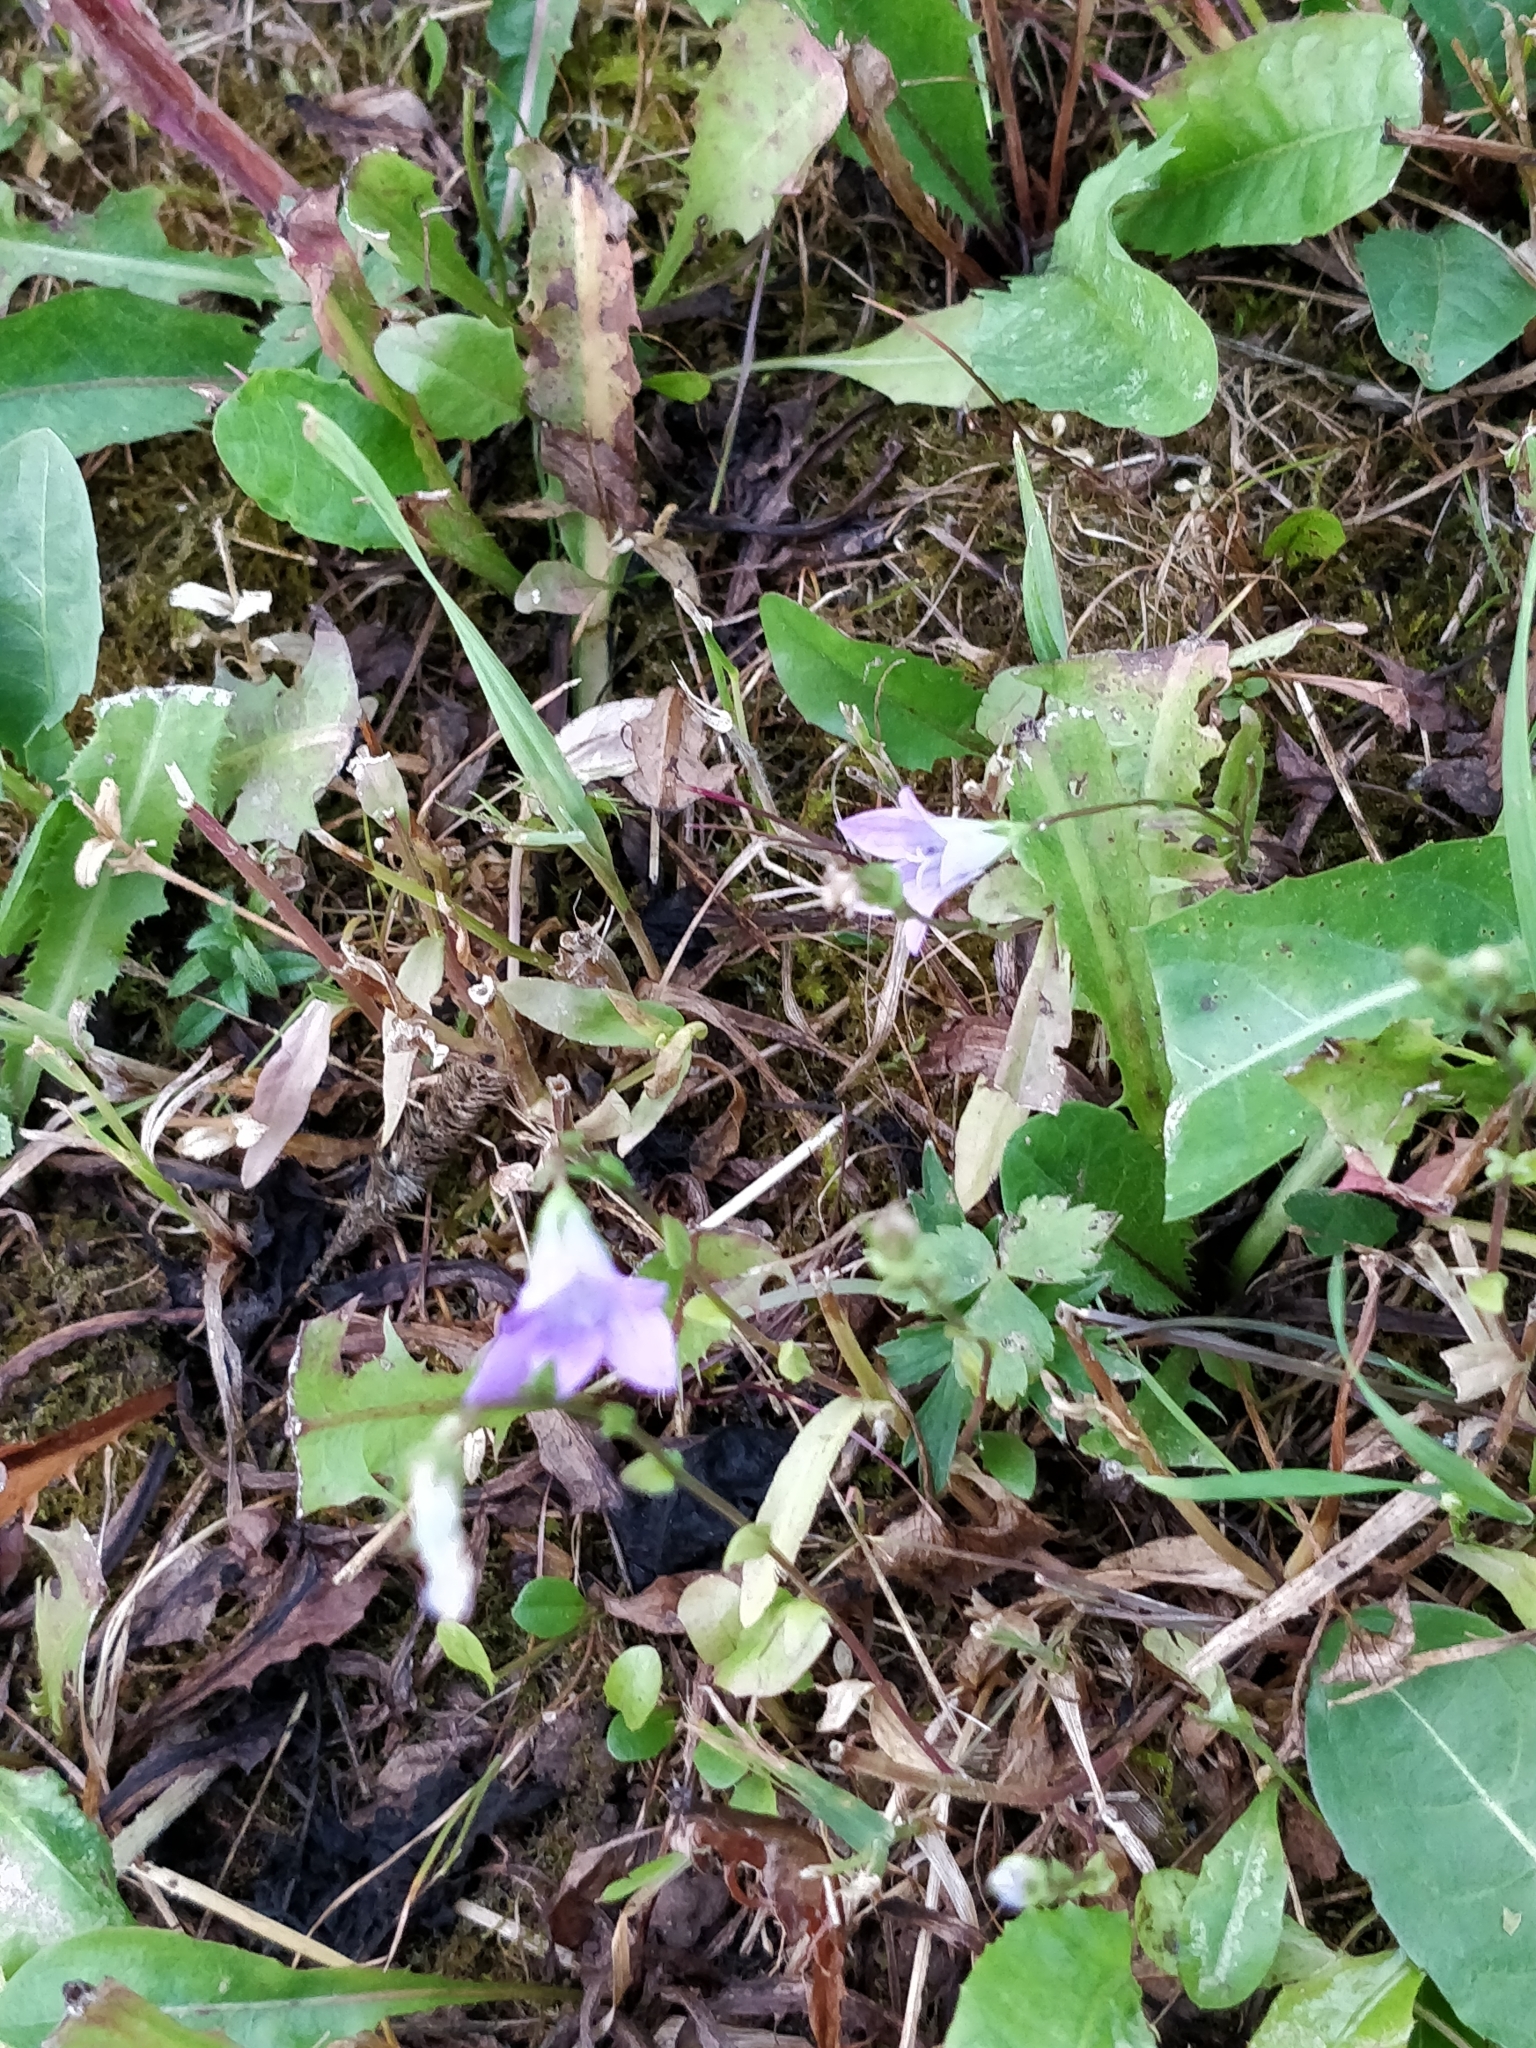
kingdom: Plantae
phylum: Tracheophyta
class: Magnoliopsida
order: Asterales
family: Campanulaceae
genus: Campanula
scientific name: Campanula patula
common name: Spreading bellflower
